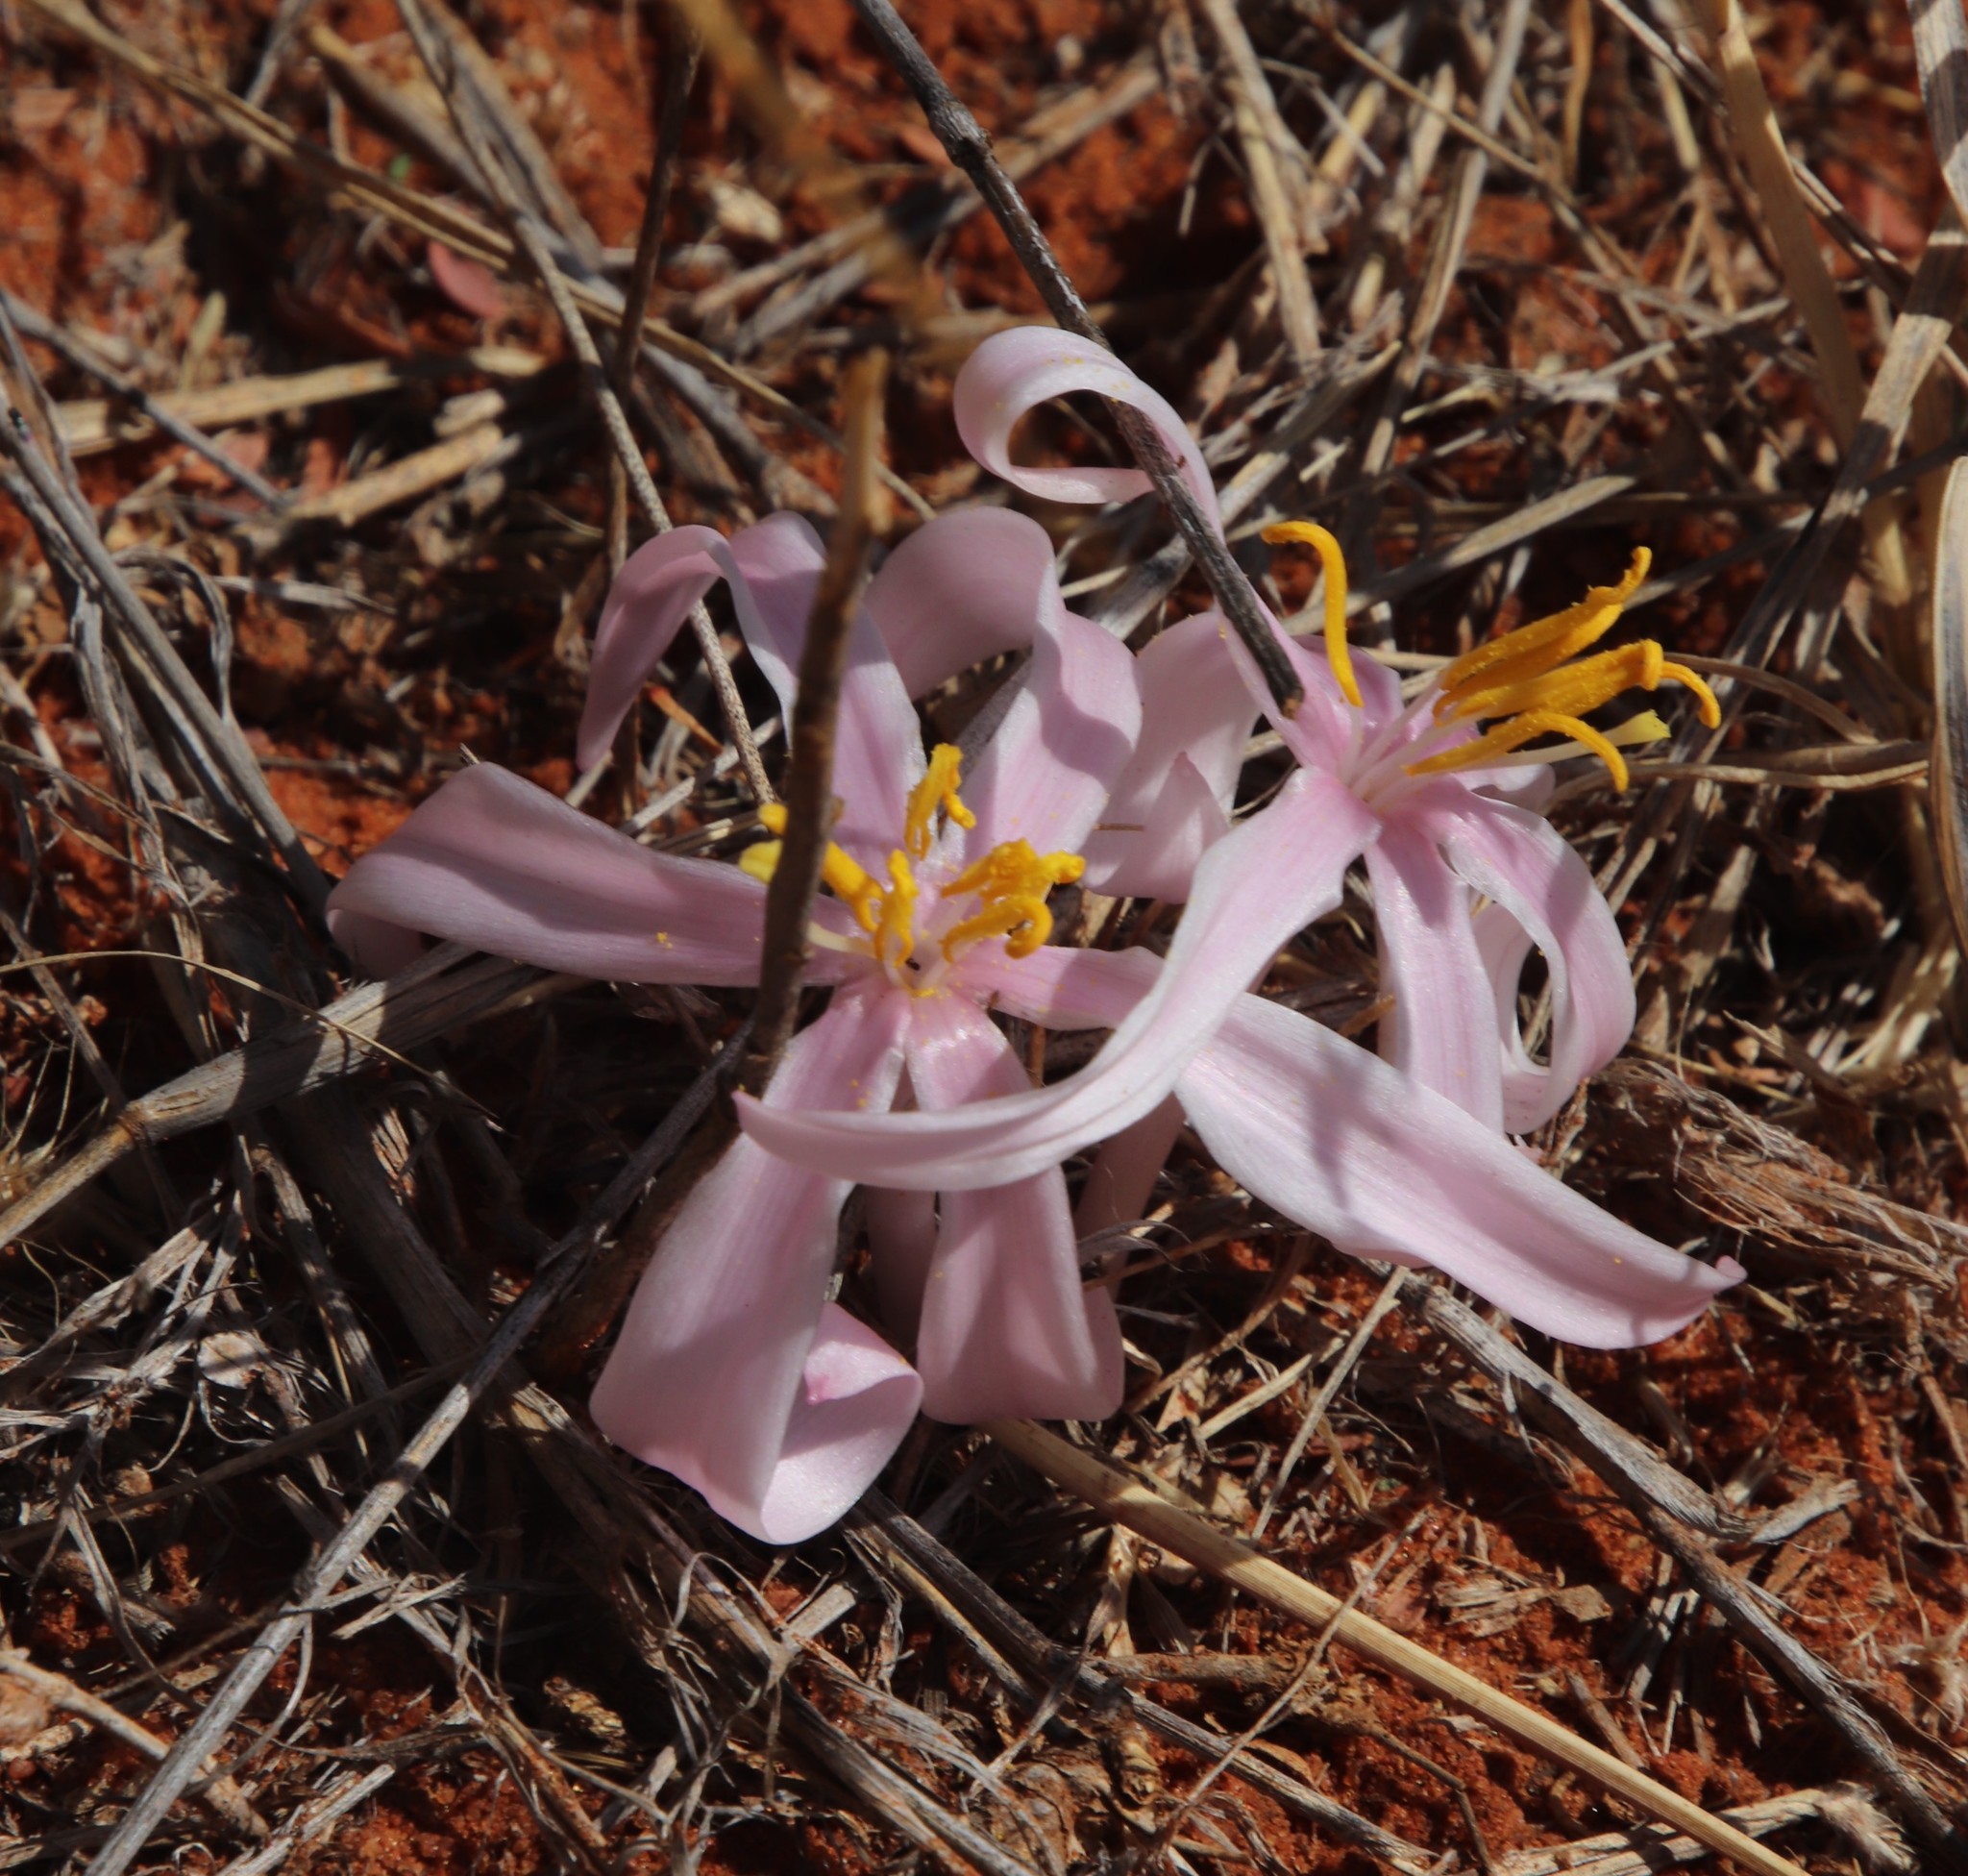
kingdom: Plantae
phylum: Tracheophyta
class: Liliopsida
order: Asparagales
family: Amaryllidaceae
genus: Gethyllis
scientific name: Gethyllis transkarooica
